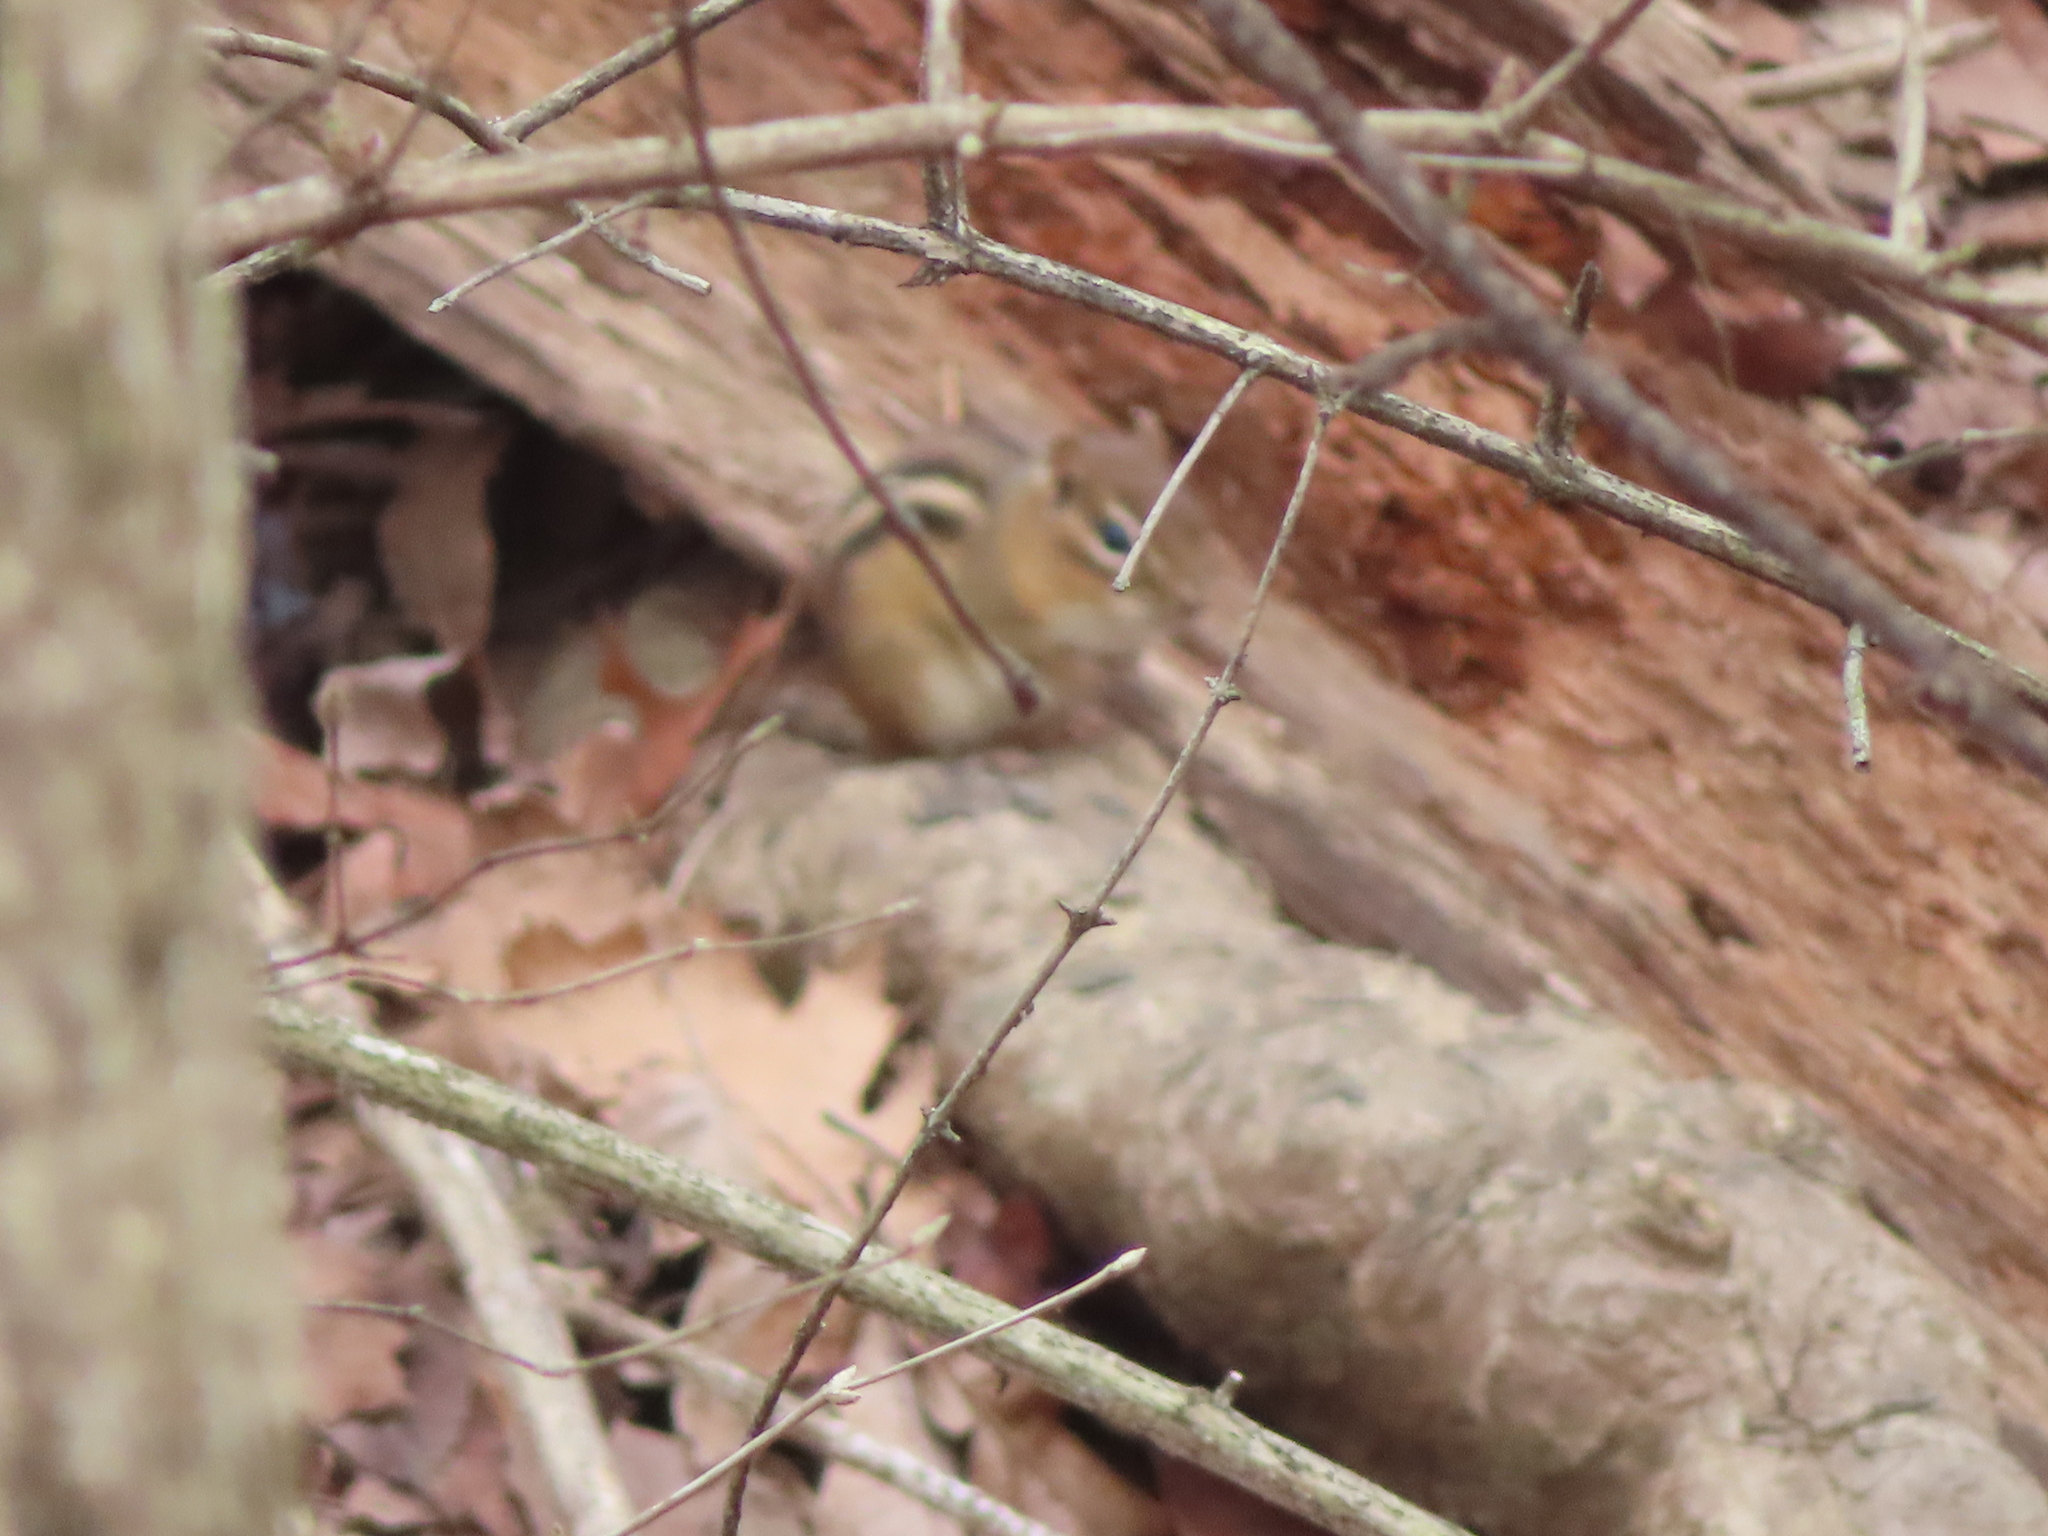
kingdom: Animalia
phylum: Chordata
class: Mammalia
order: Rodentia
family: Sciuridae
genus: Tamias
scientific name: Tamias striatus
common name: Eastern chipmunk
